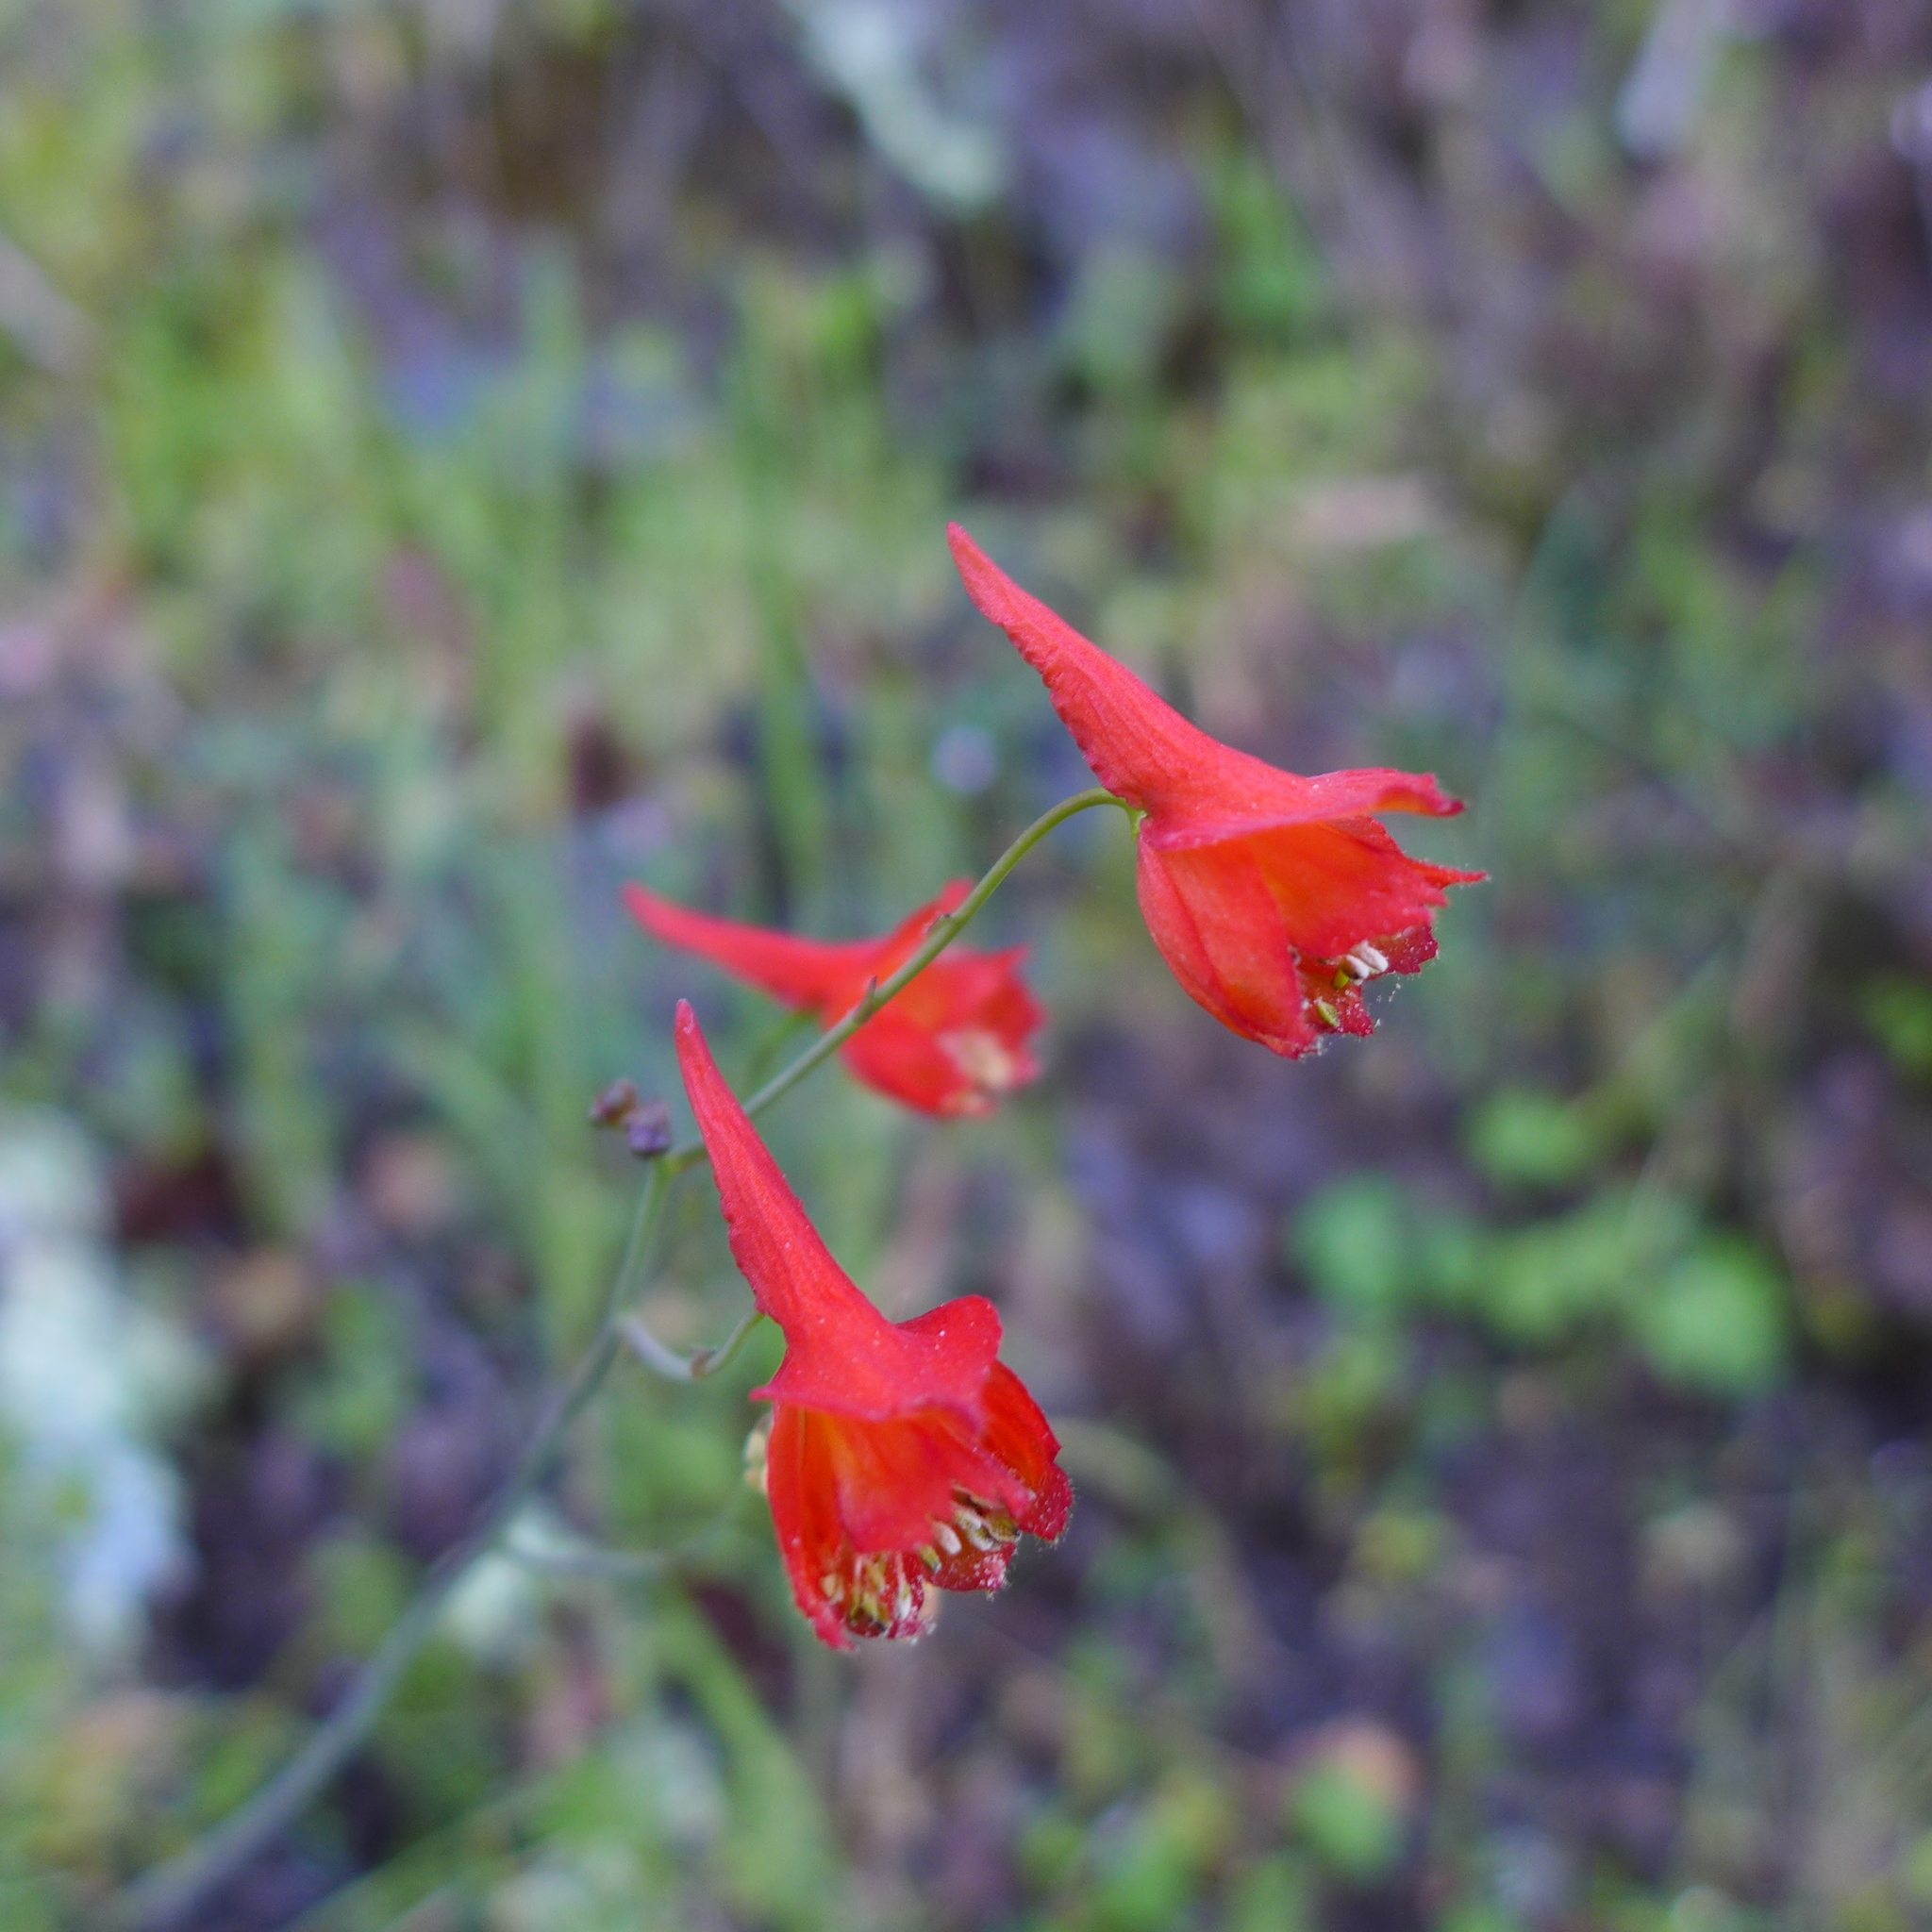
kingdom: Plantae
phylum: Tracheophyta
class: Magnoliopsida
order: Ranunculales
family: Ranunculaceae
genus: Delphinium
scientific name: Delphinium nudicaule
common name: Red larkspur
